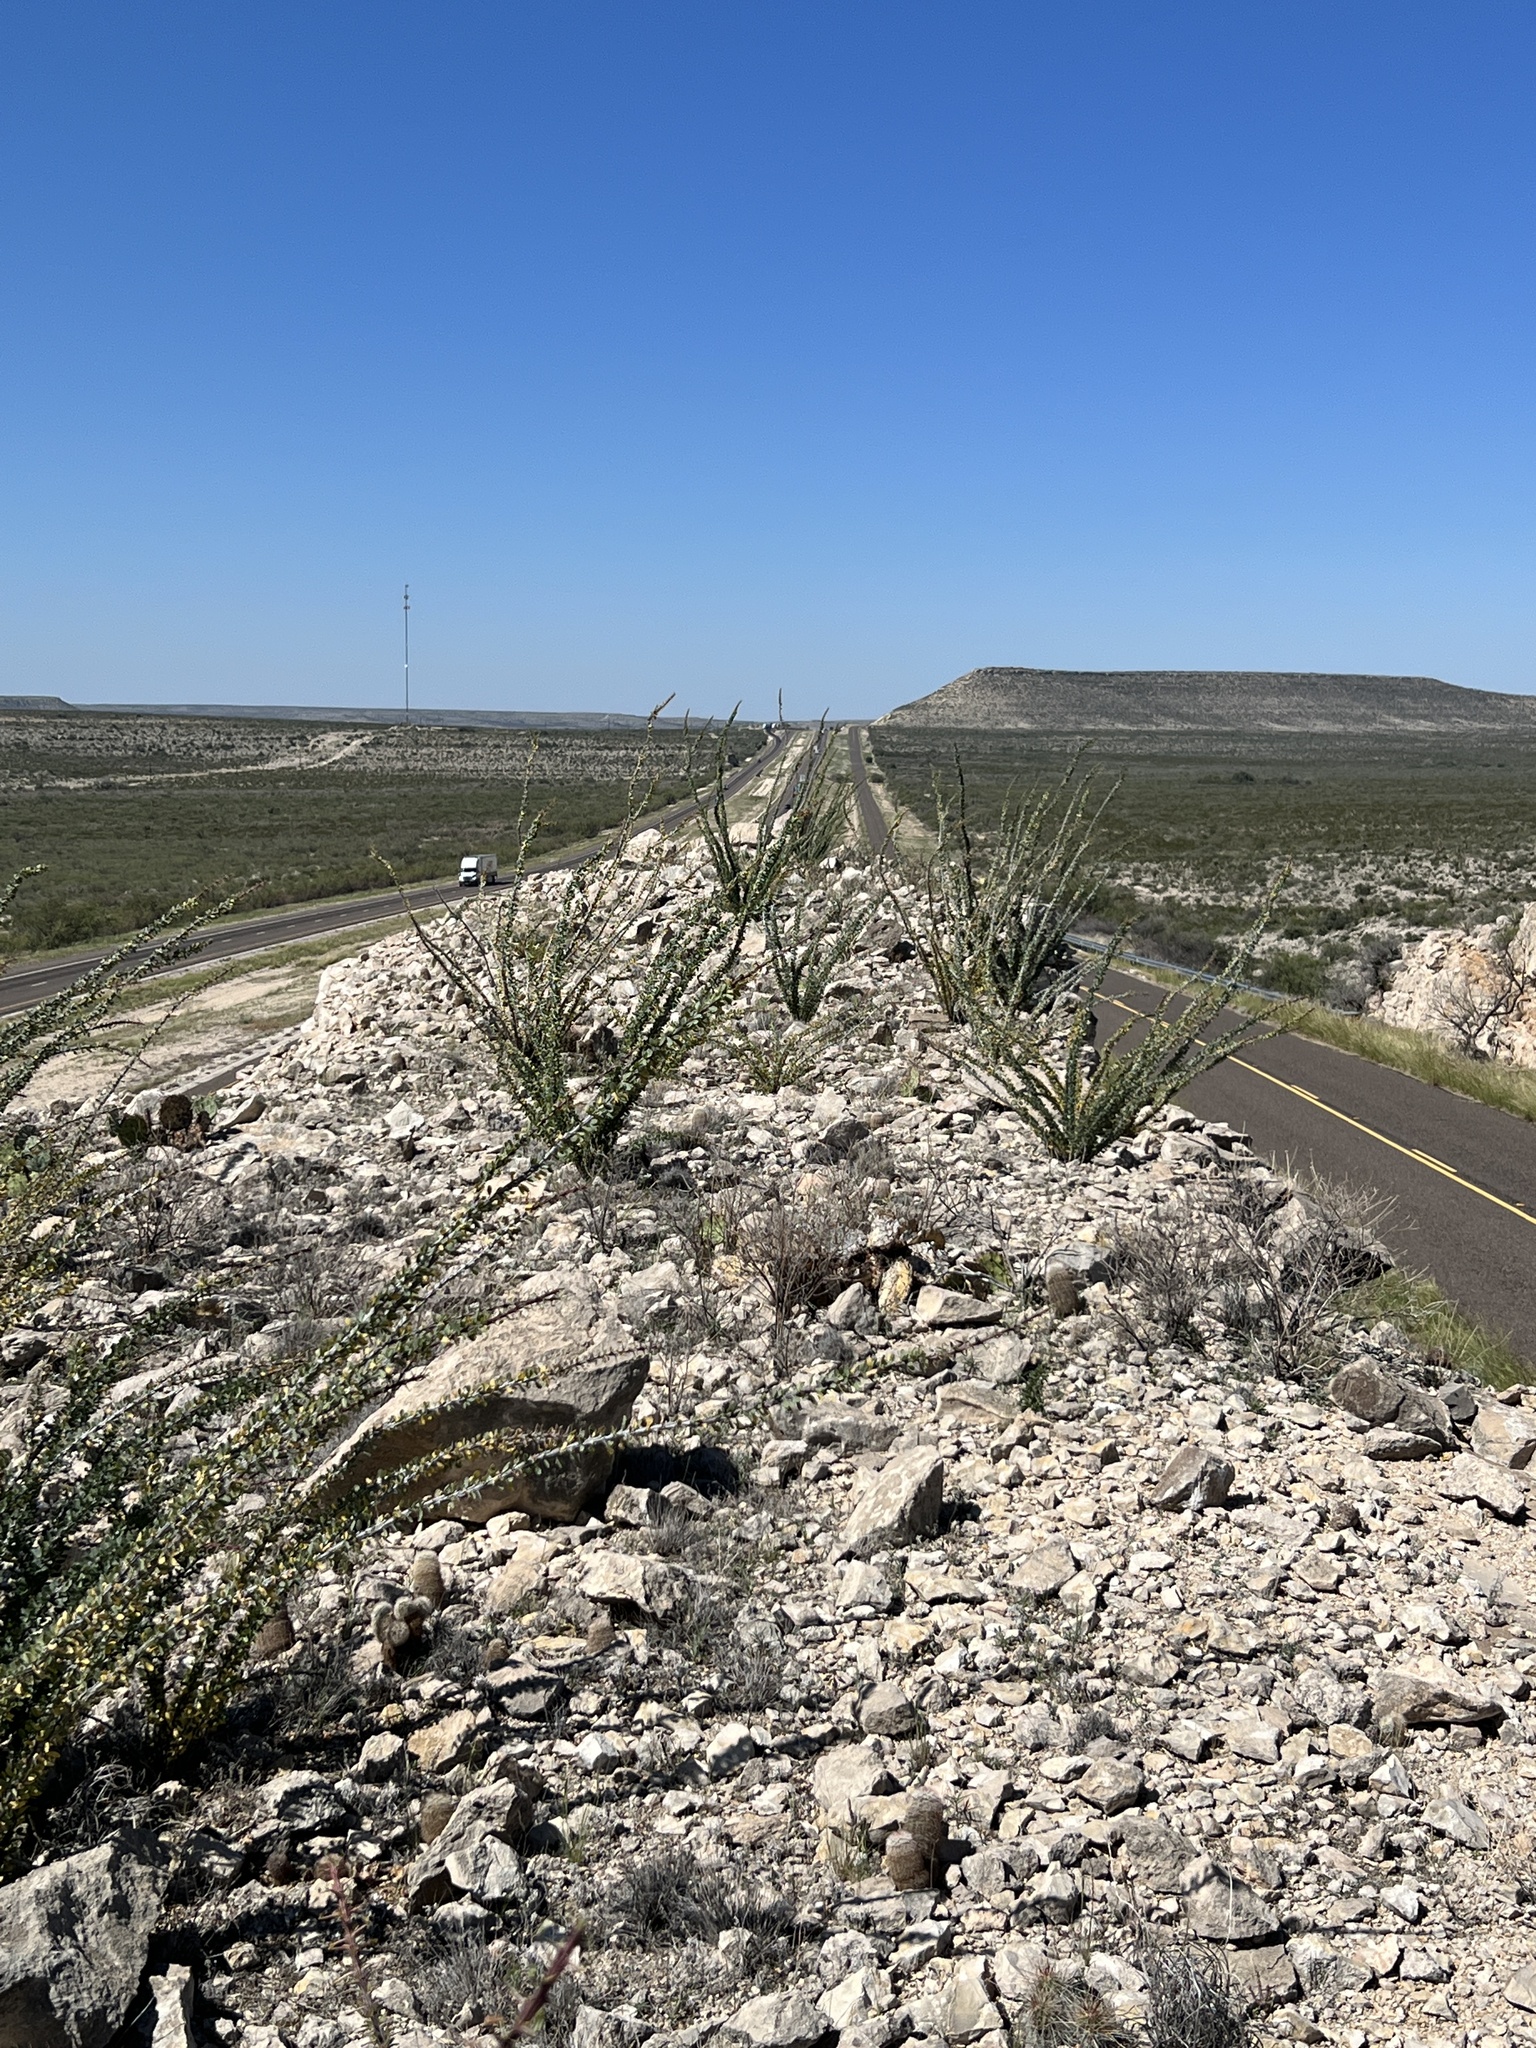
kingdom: Plantae
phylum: Tracheophyta
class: Magnoliopsida
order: Ericales
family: Fouquieriaceae
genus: Fouquieria
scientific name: Fouquieria splendens
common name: Vine-cactus
